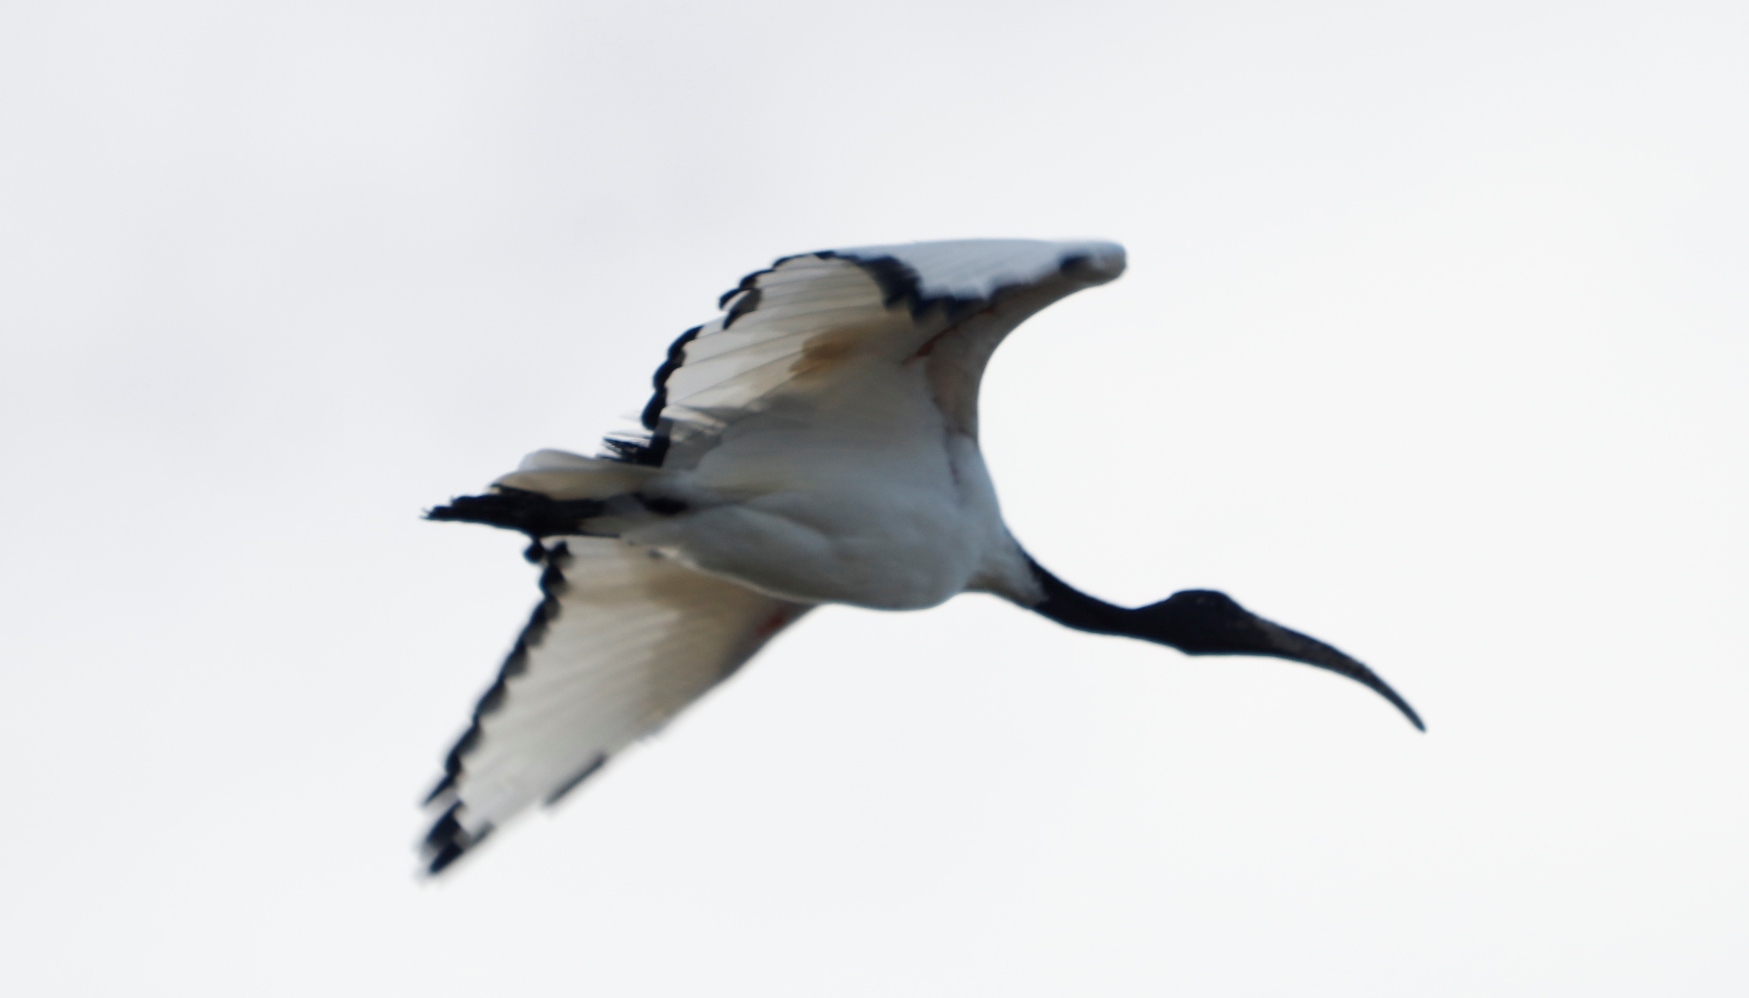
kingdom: Animalia
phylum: Chordata
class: Aves
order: Pelecaniformes
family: Threskiornithidae
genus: Threskiornis
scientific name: Threskiornis aethiopicus
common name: Sacred ibis
